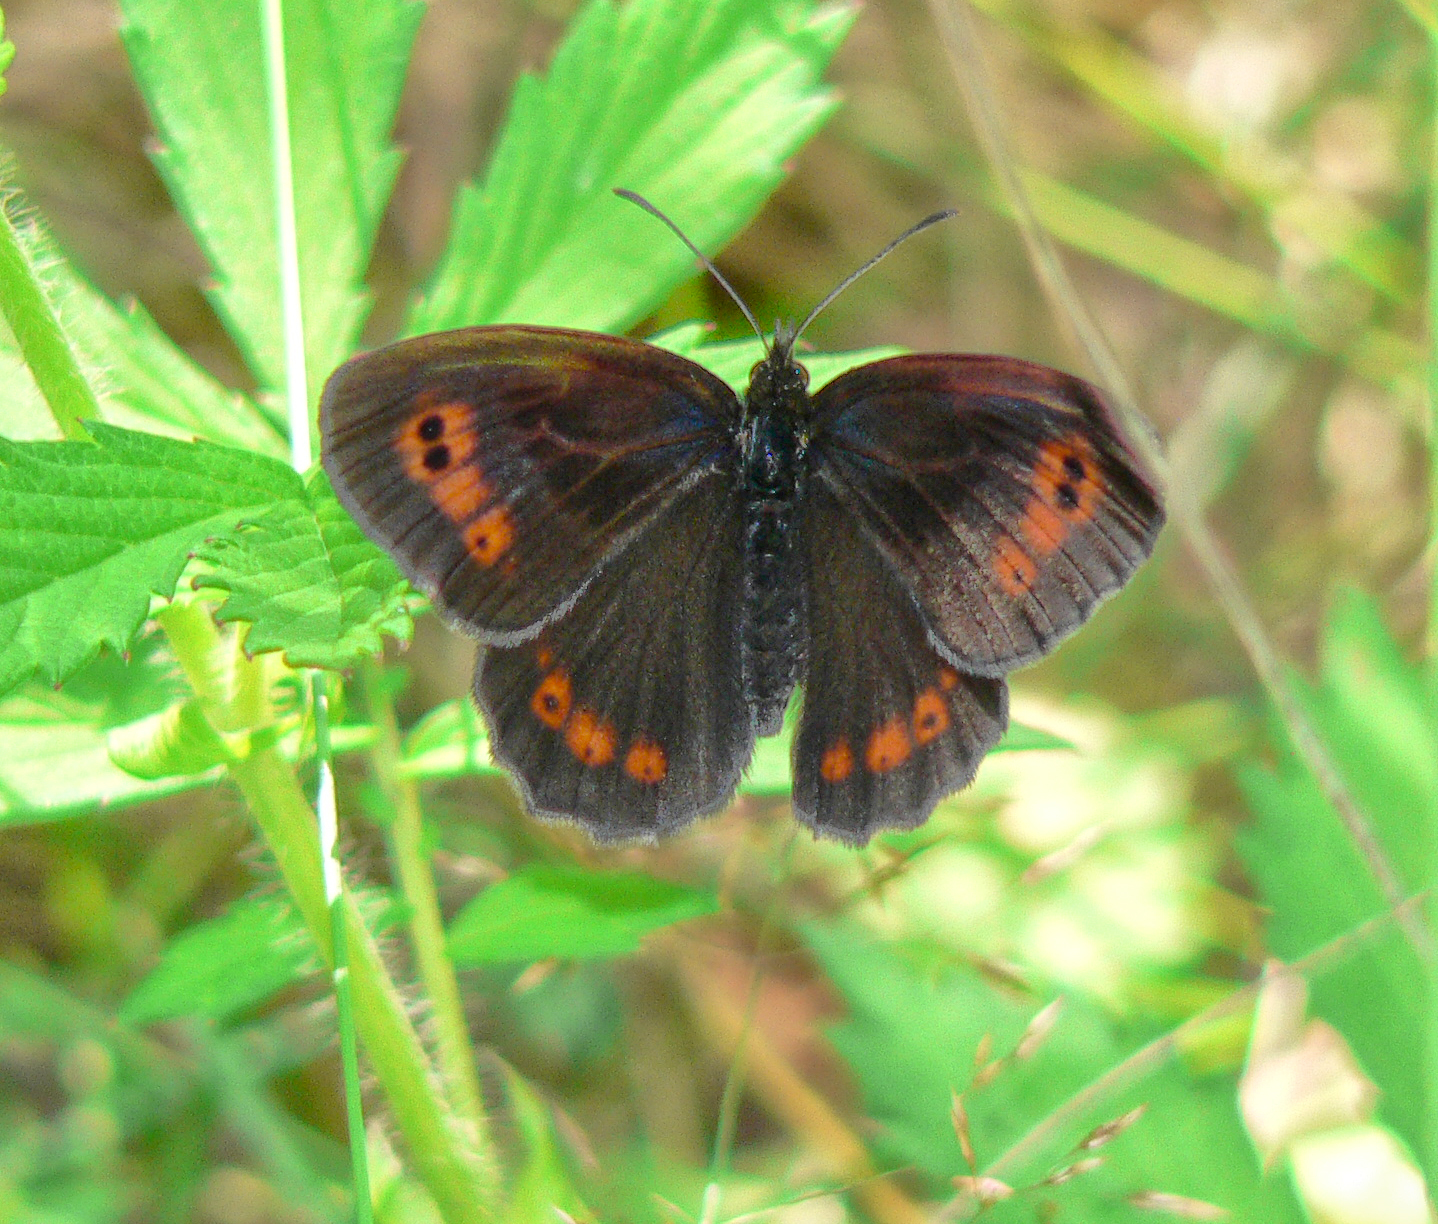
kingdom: Animalia
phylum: Arthropoda
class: Insecta
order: Lepidoptera
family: Nymphalidae
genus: Erebia
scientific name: Erebia aethiops
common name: Scotch argus
